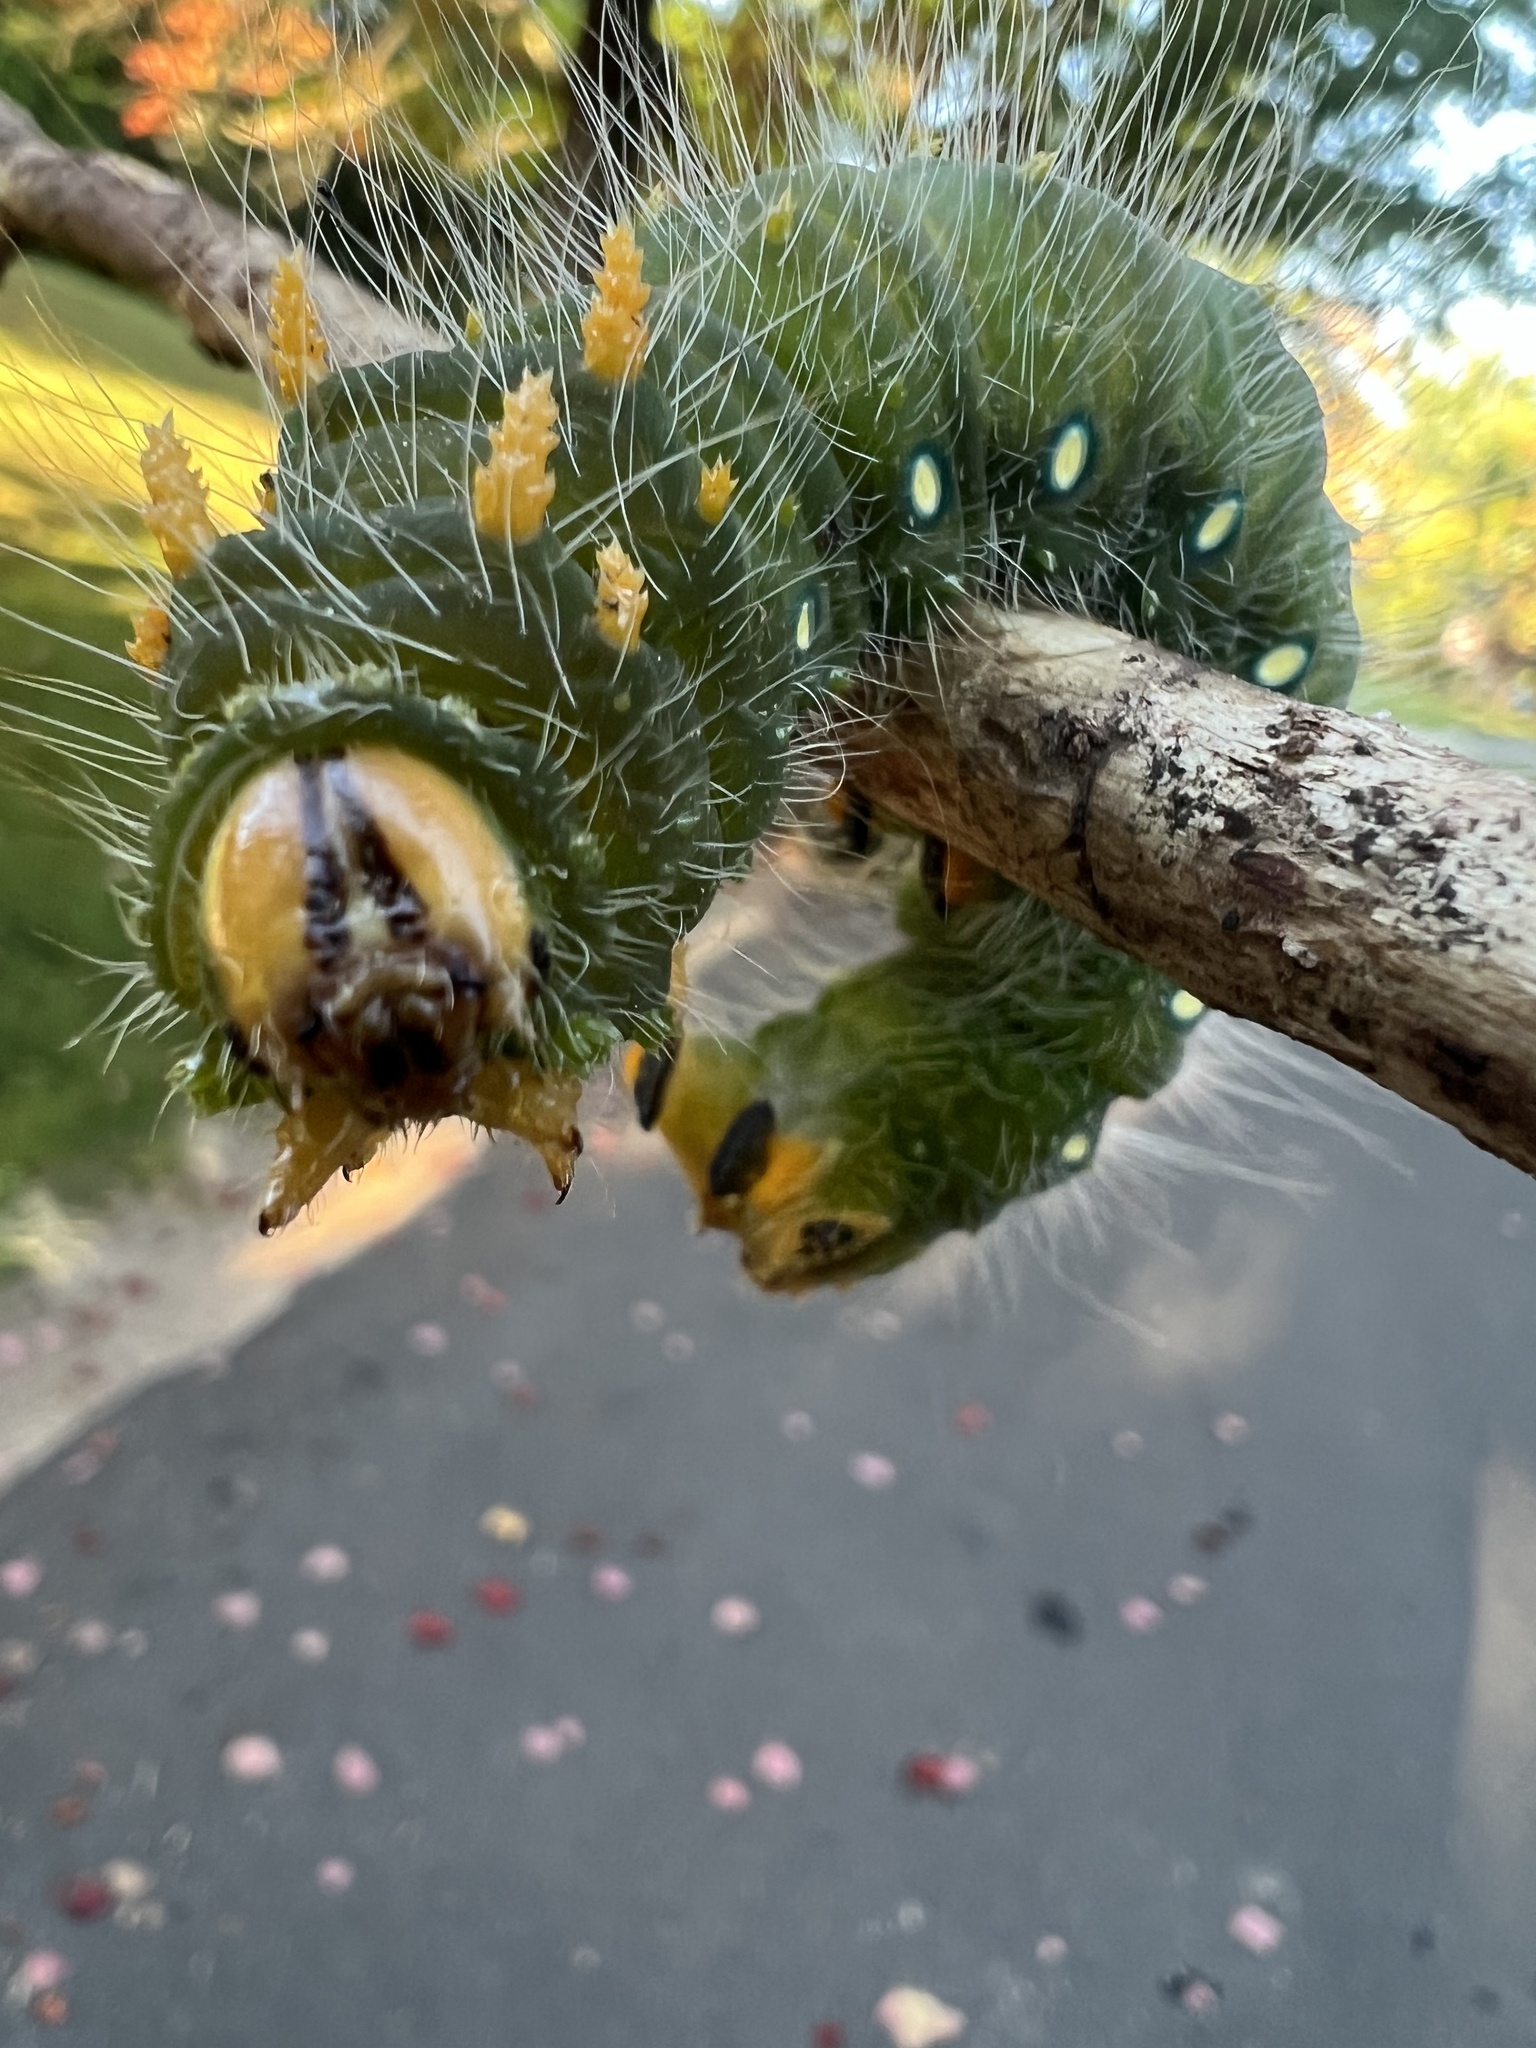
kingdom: Animalia
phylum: Arthropoda
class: Insecta
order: Lepidoptera
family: Saturniidae
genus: Eacles
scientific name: Eacles imperialis
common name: Imperial moth
